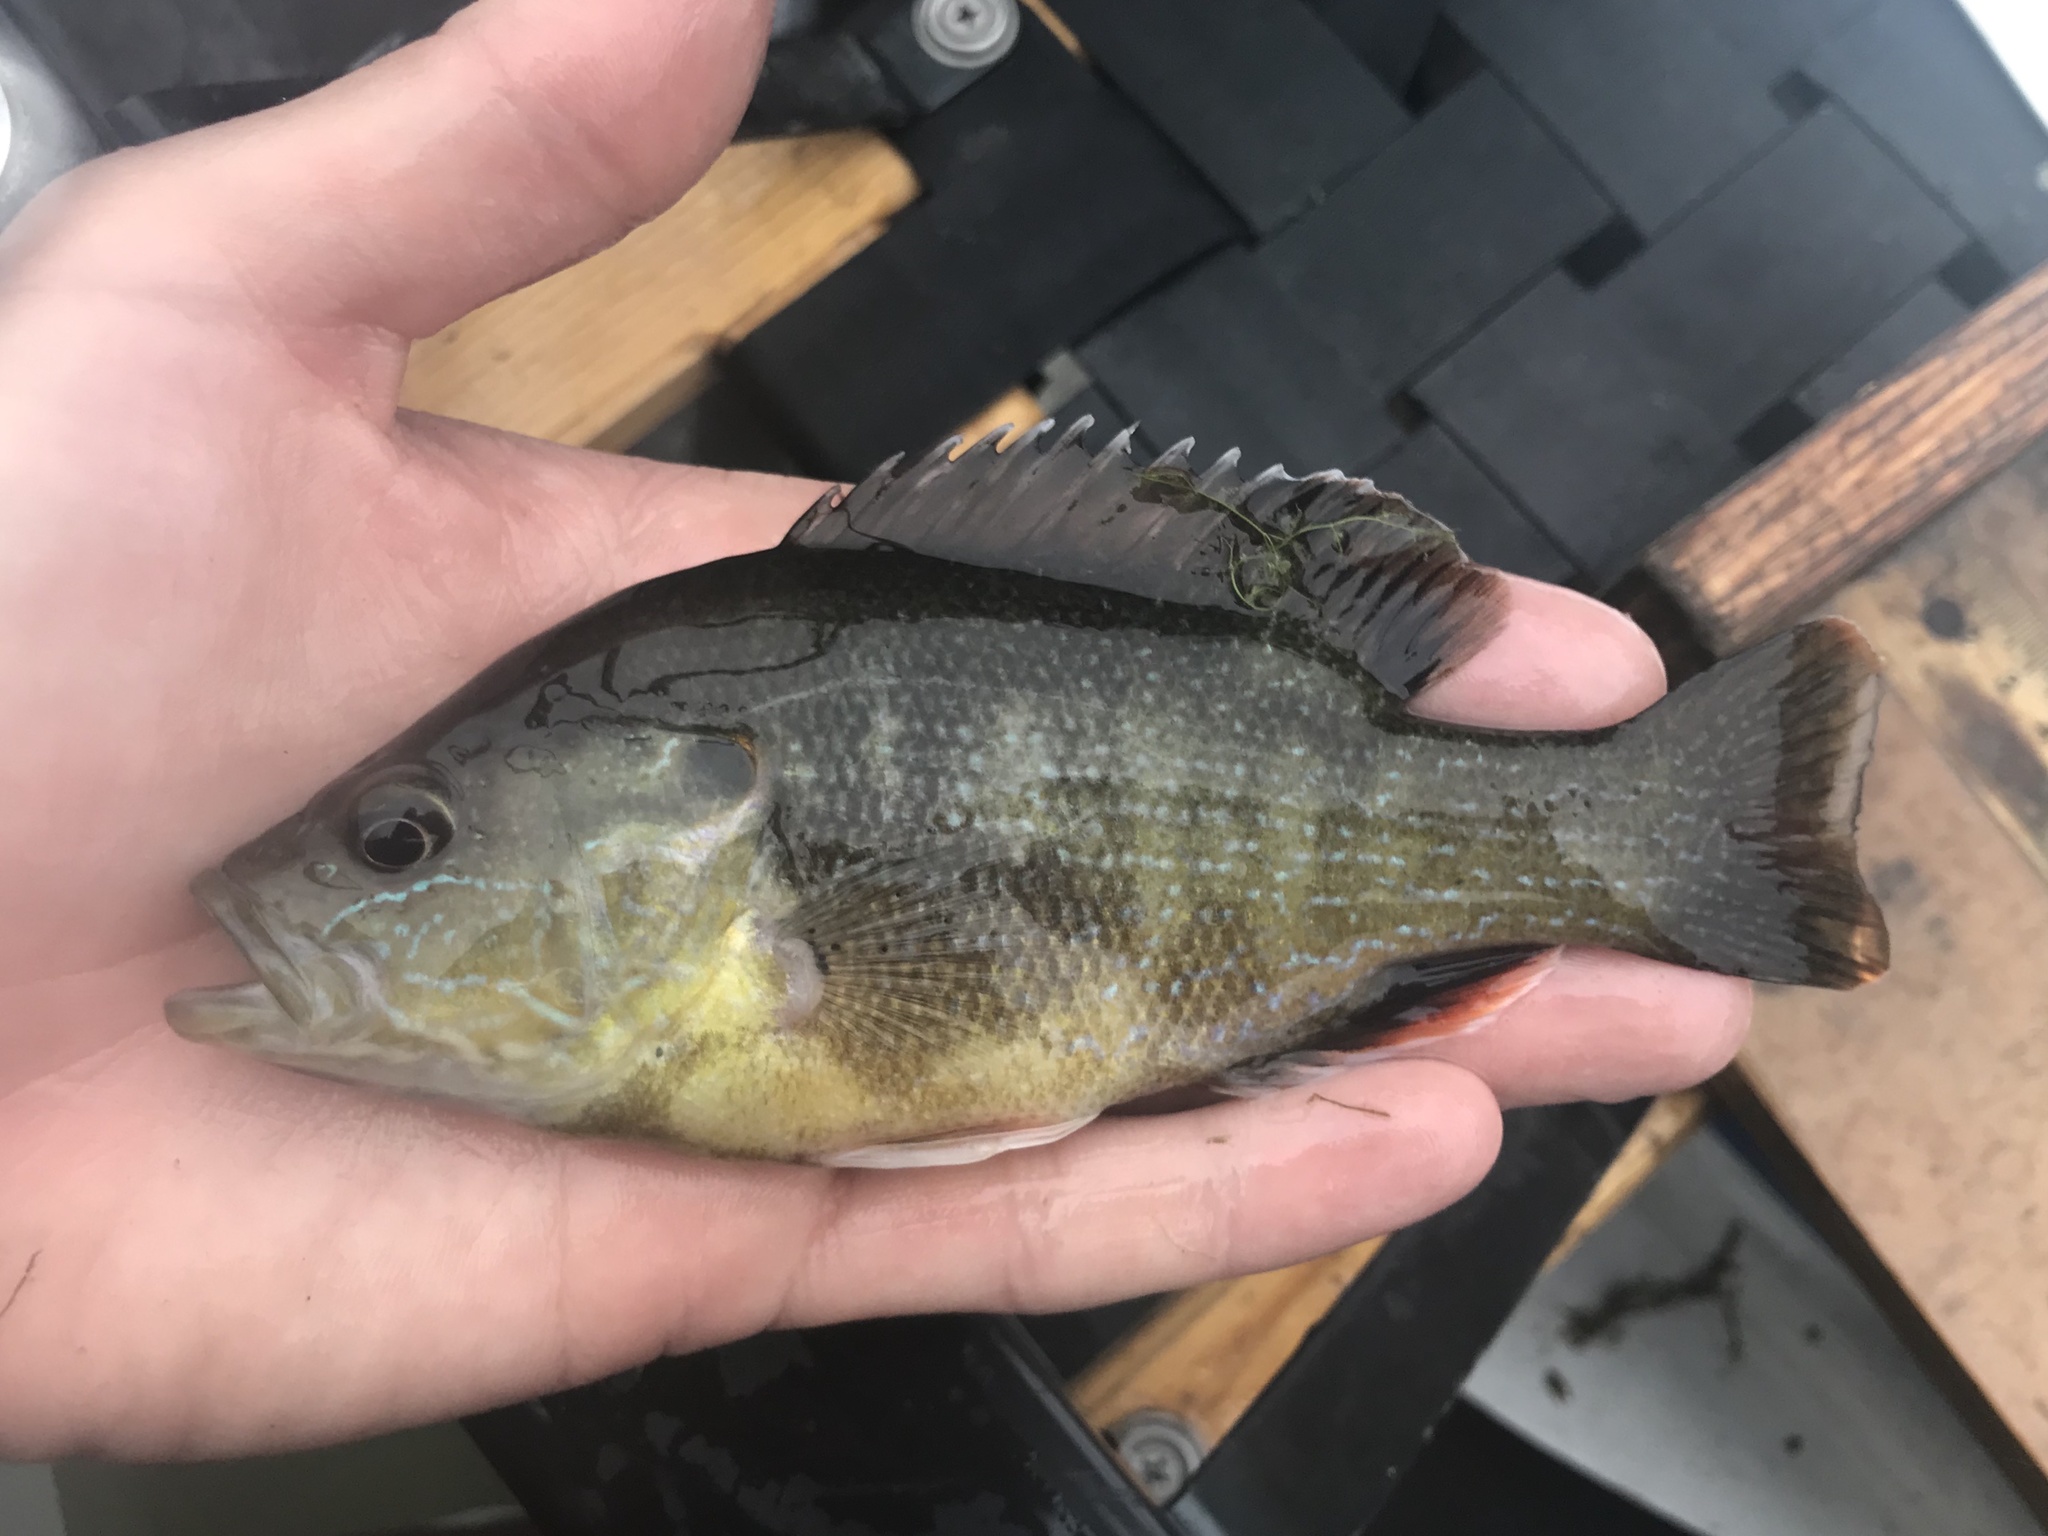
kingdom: Animalia
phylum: Chordata
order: Perciformes
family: Centrarchidae
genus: Lepomis
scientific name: Lepomis cyanellus
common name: Green sunfish
